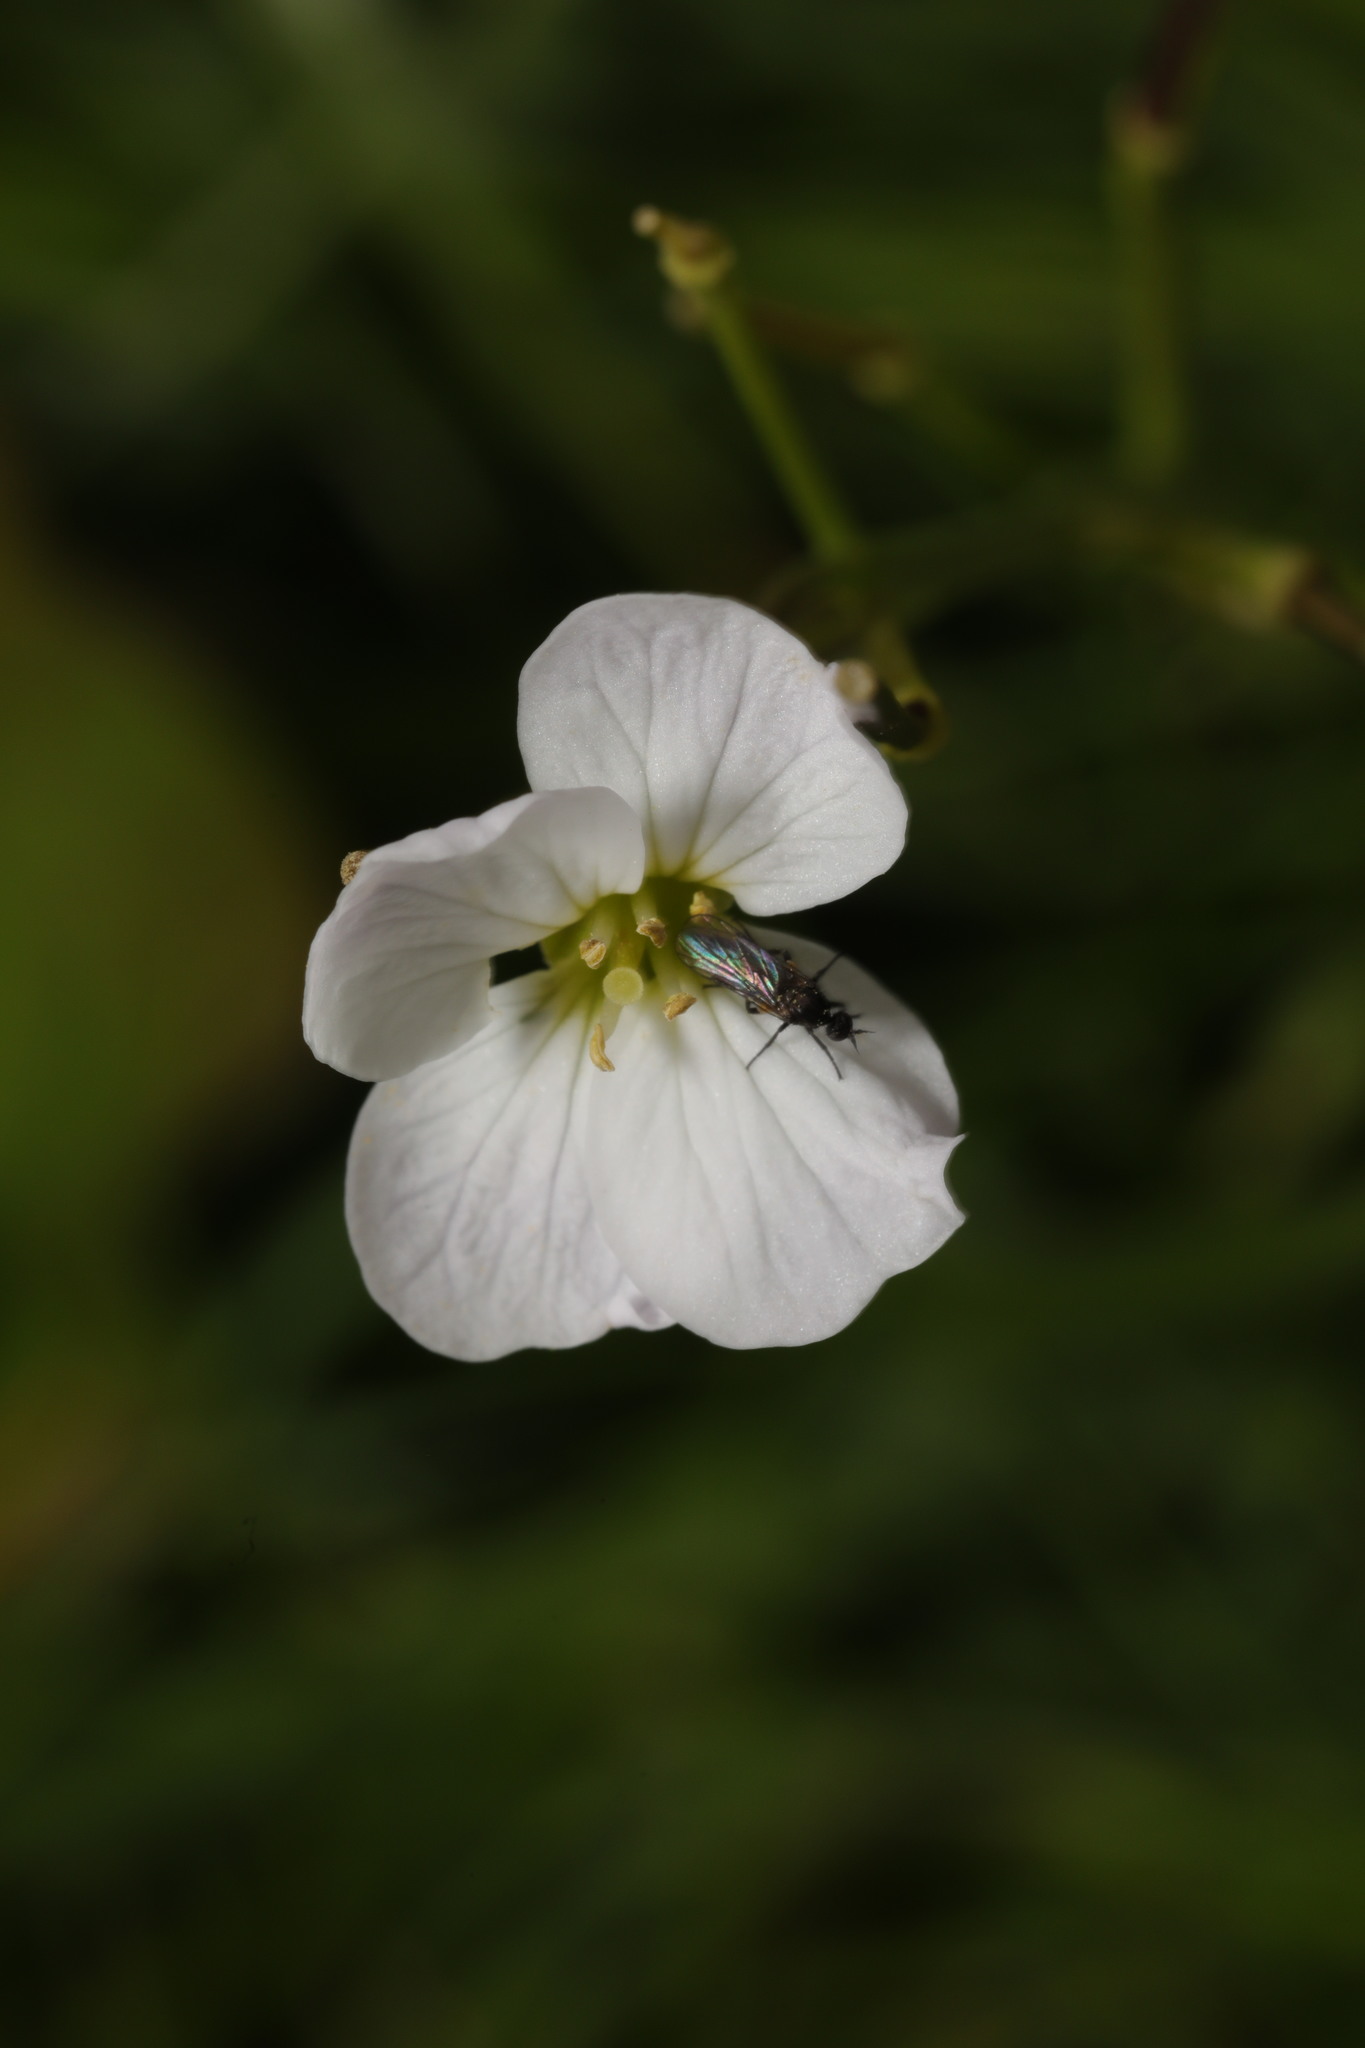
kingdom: Plantae
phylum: Tracheophyta
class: Magnoliopsida
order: Brassicales
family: Brassicaceae
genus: Cardamine
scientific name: Cardamine pratensis
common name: Cuckoo flower
